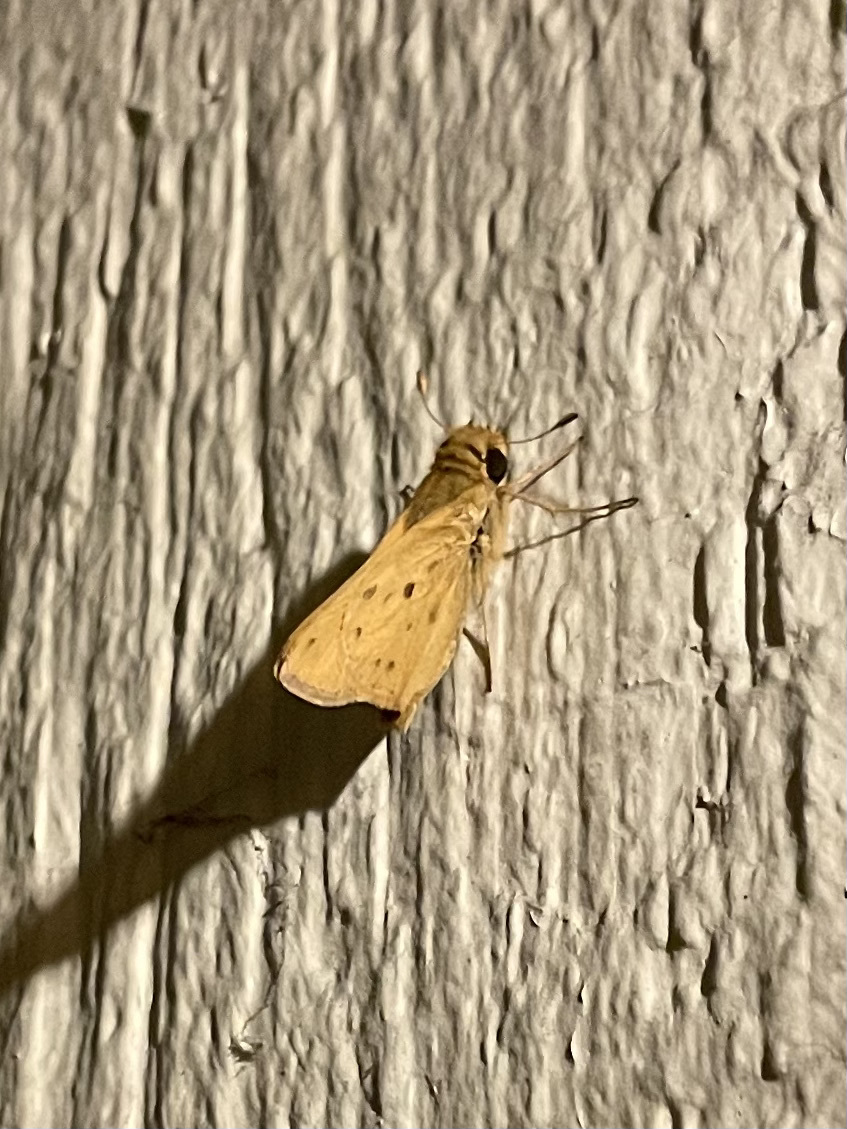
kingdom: Animalia
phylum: Arthropoda
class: Insecta
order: Lepidoptera
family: Hesperiidae
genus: Hylephila
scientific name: Hylephila phyleus
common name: Fiery skipper
